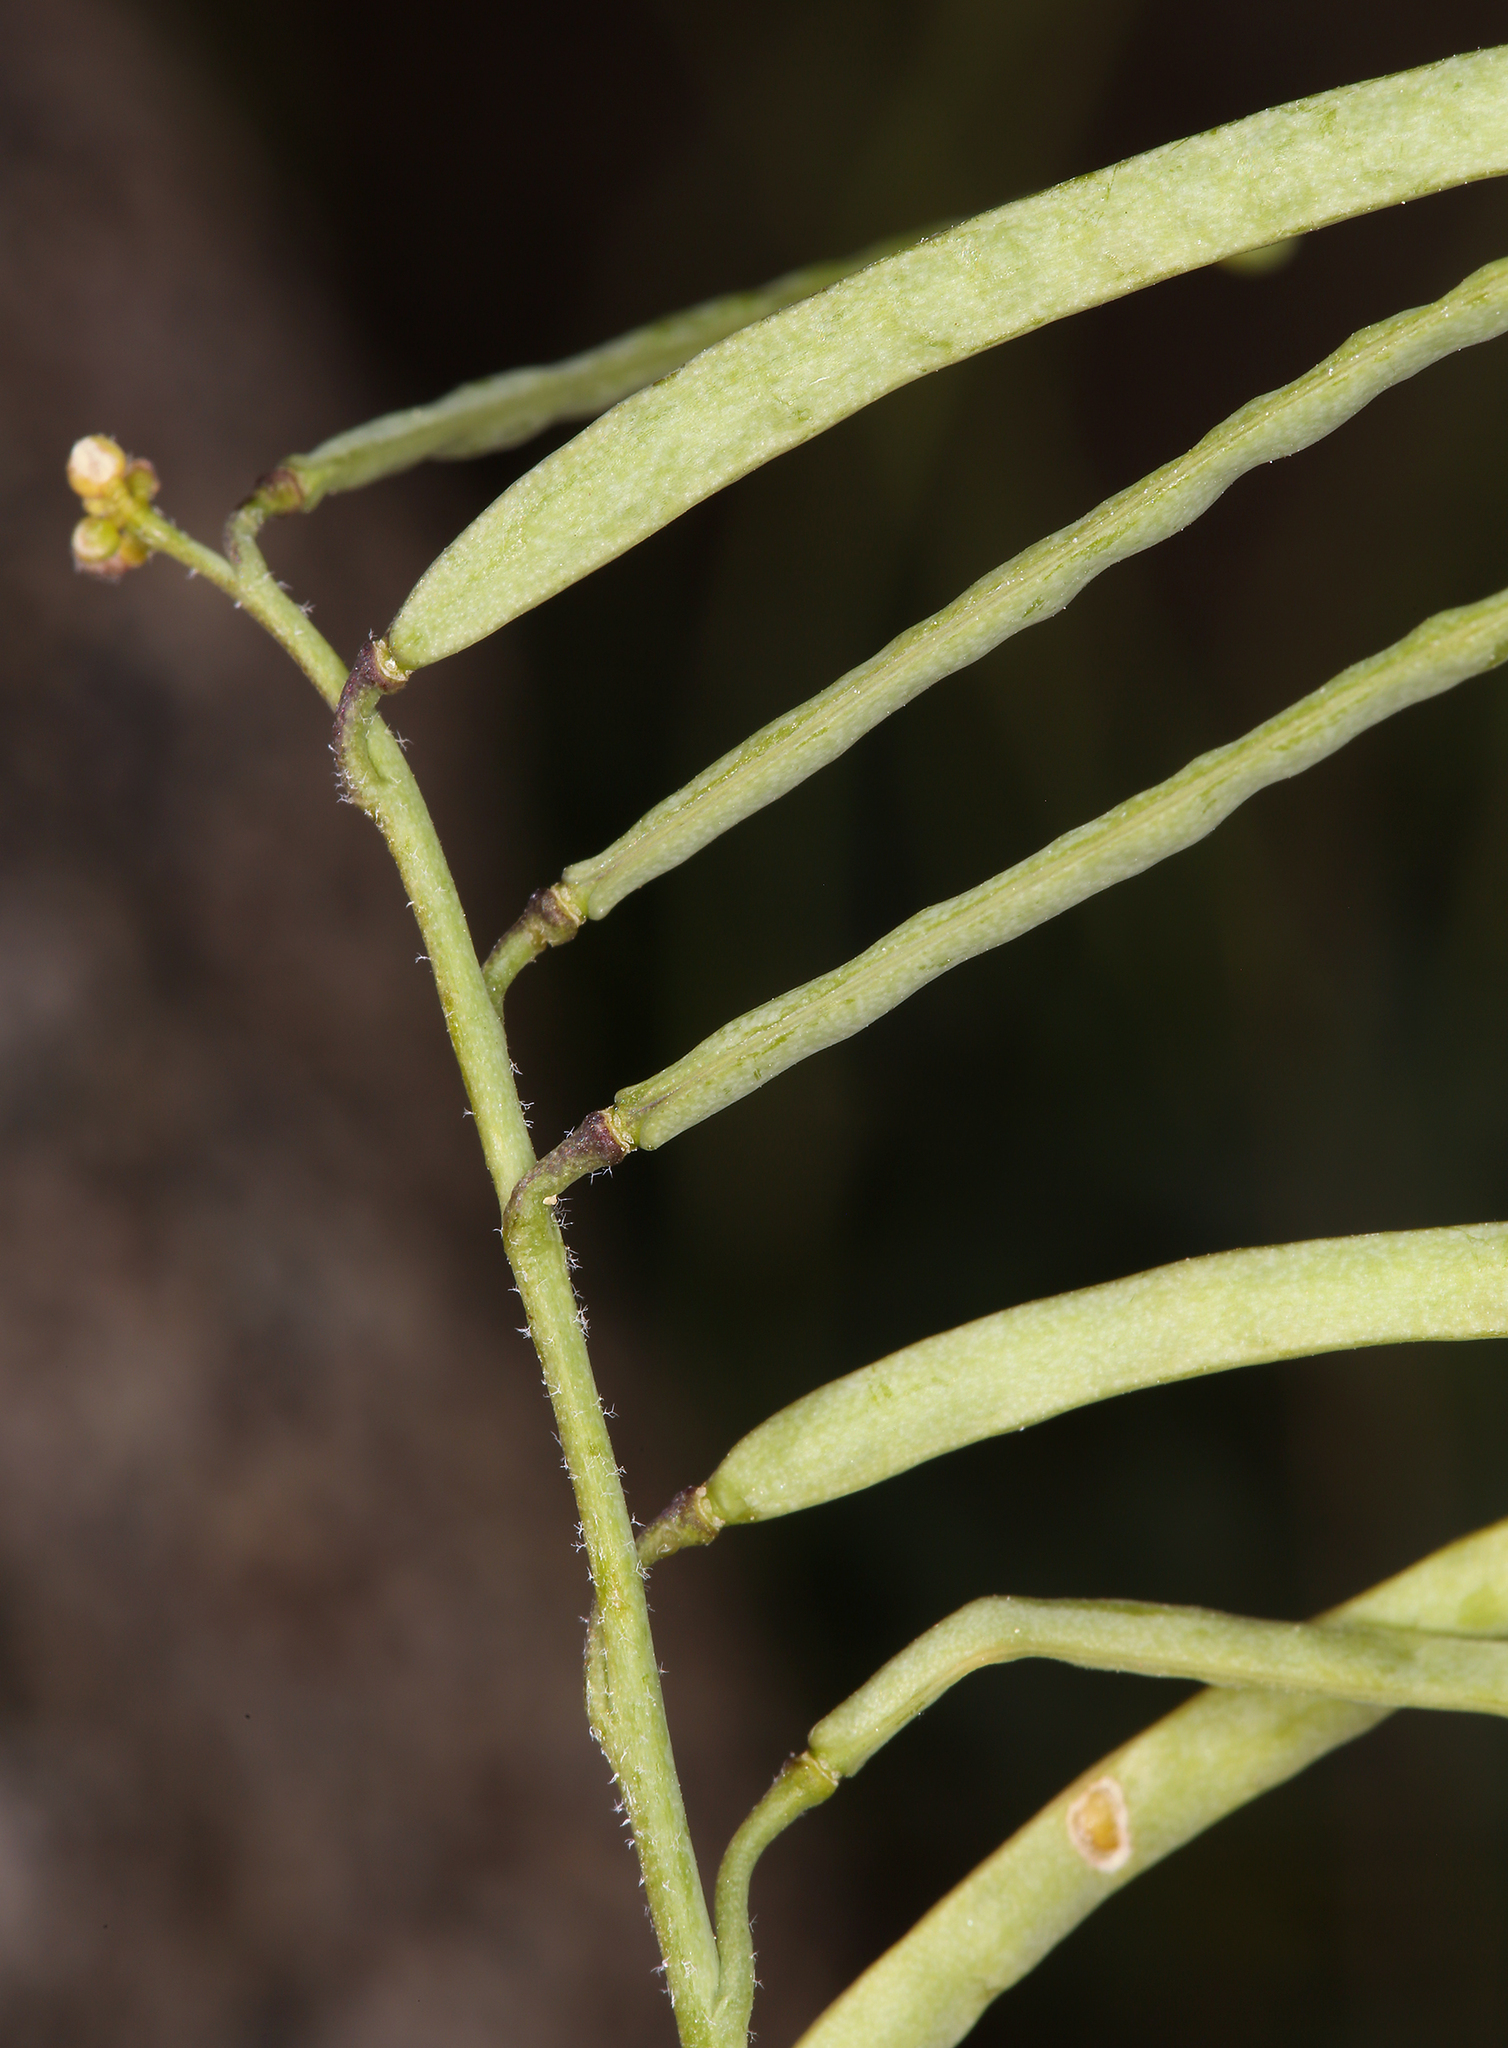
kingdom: Plantae
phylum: Tracheophyta
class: Magnoliopsida
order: Brassicales
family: Brassicaceae
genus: Boechera
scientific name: Boechera lemmonii
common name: Lemmon's rockcress
